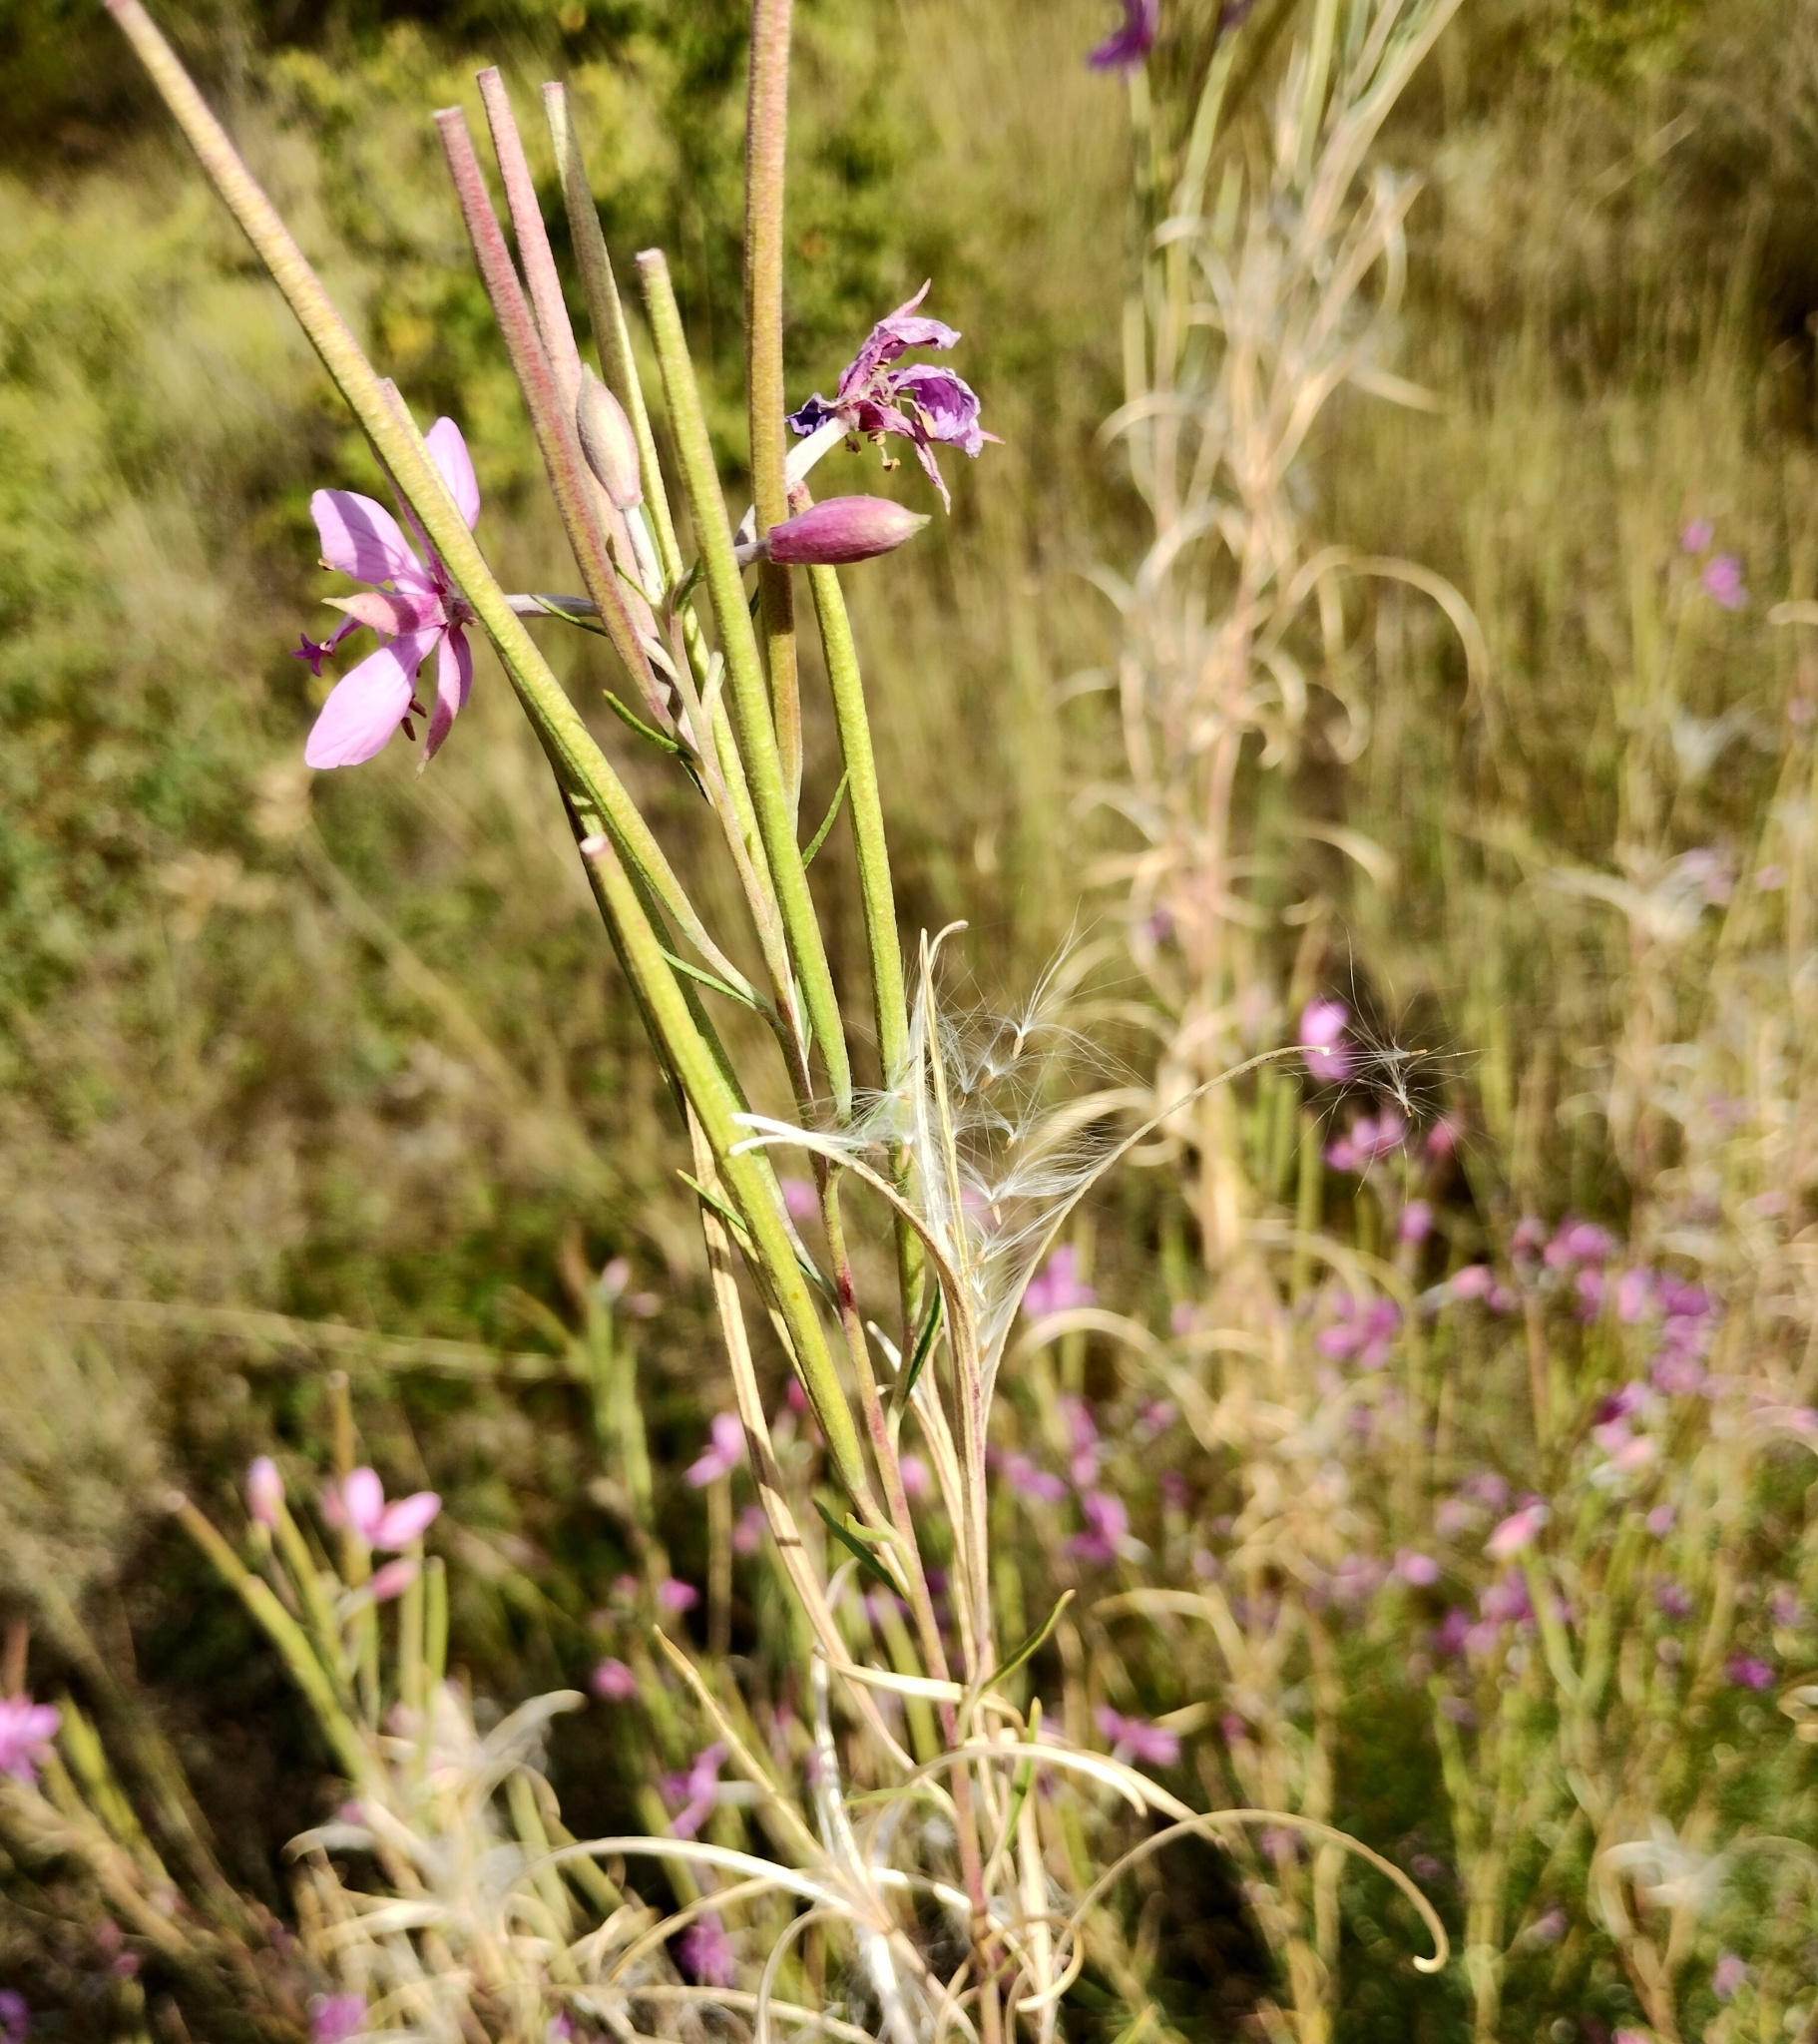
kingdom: Plantae
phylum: Tracheophyta
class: Magnoliopsida
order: Myrtales
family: Onagraceae
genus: Chamaenerion
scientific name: Chamaenerion dodonaei
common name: Rosemary-leaved willowherb
